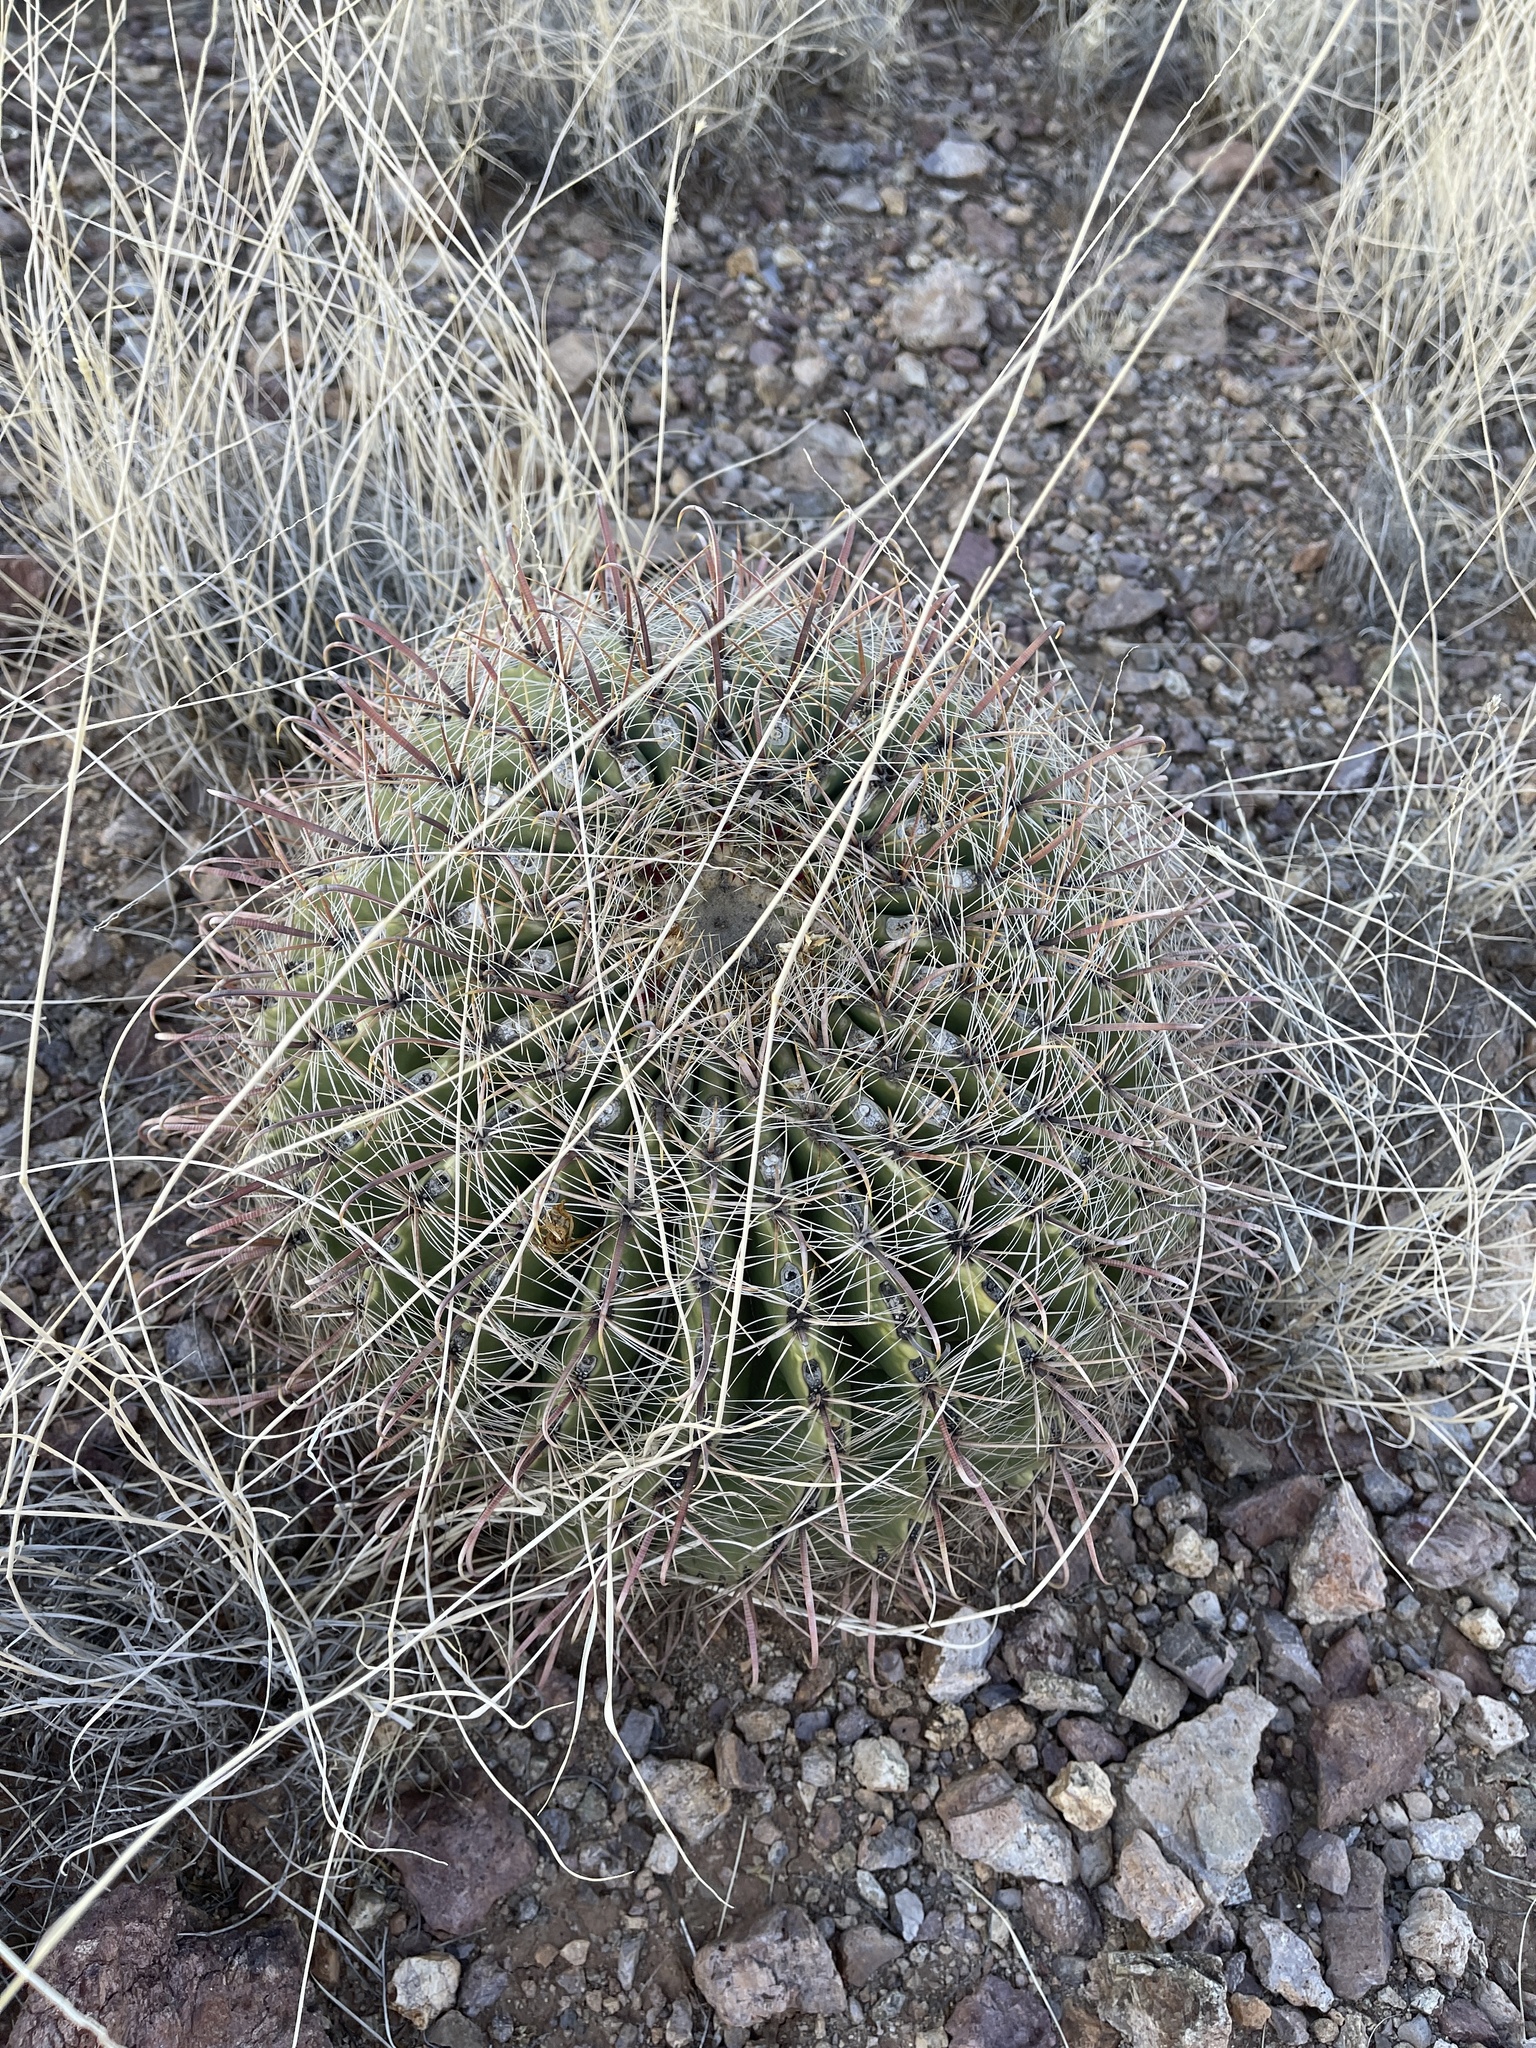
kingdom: Plantae
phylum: Tracheophyta
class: Magnoliopsida
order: Caryophyllales
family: Cactaceae
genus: Ferocactus
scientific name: Ferocactus wislizeni
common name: Candy barrel cactus
